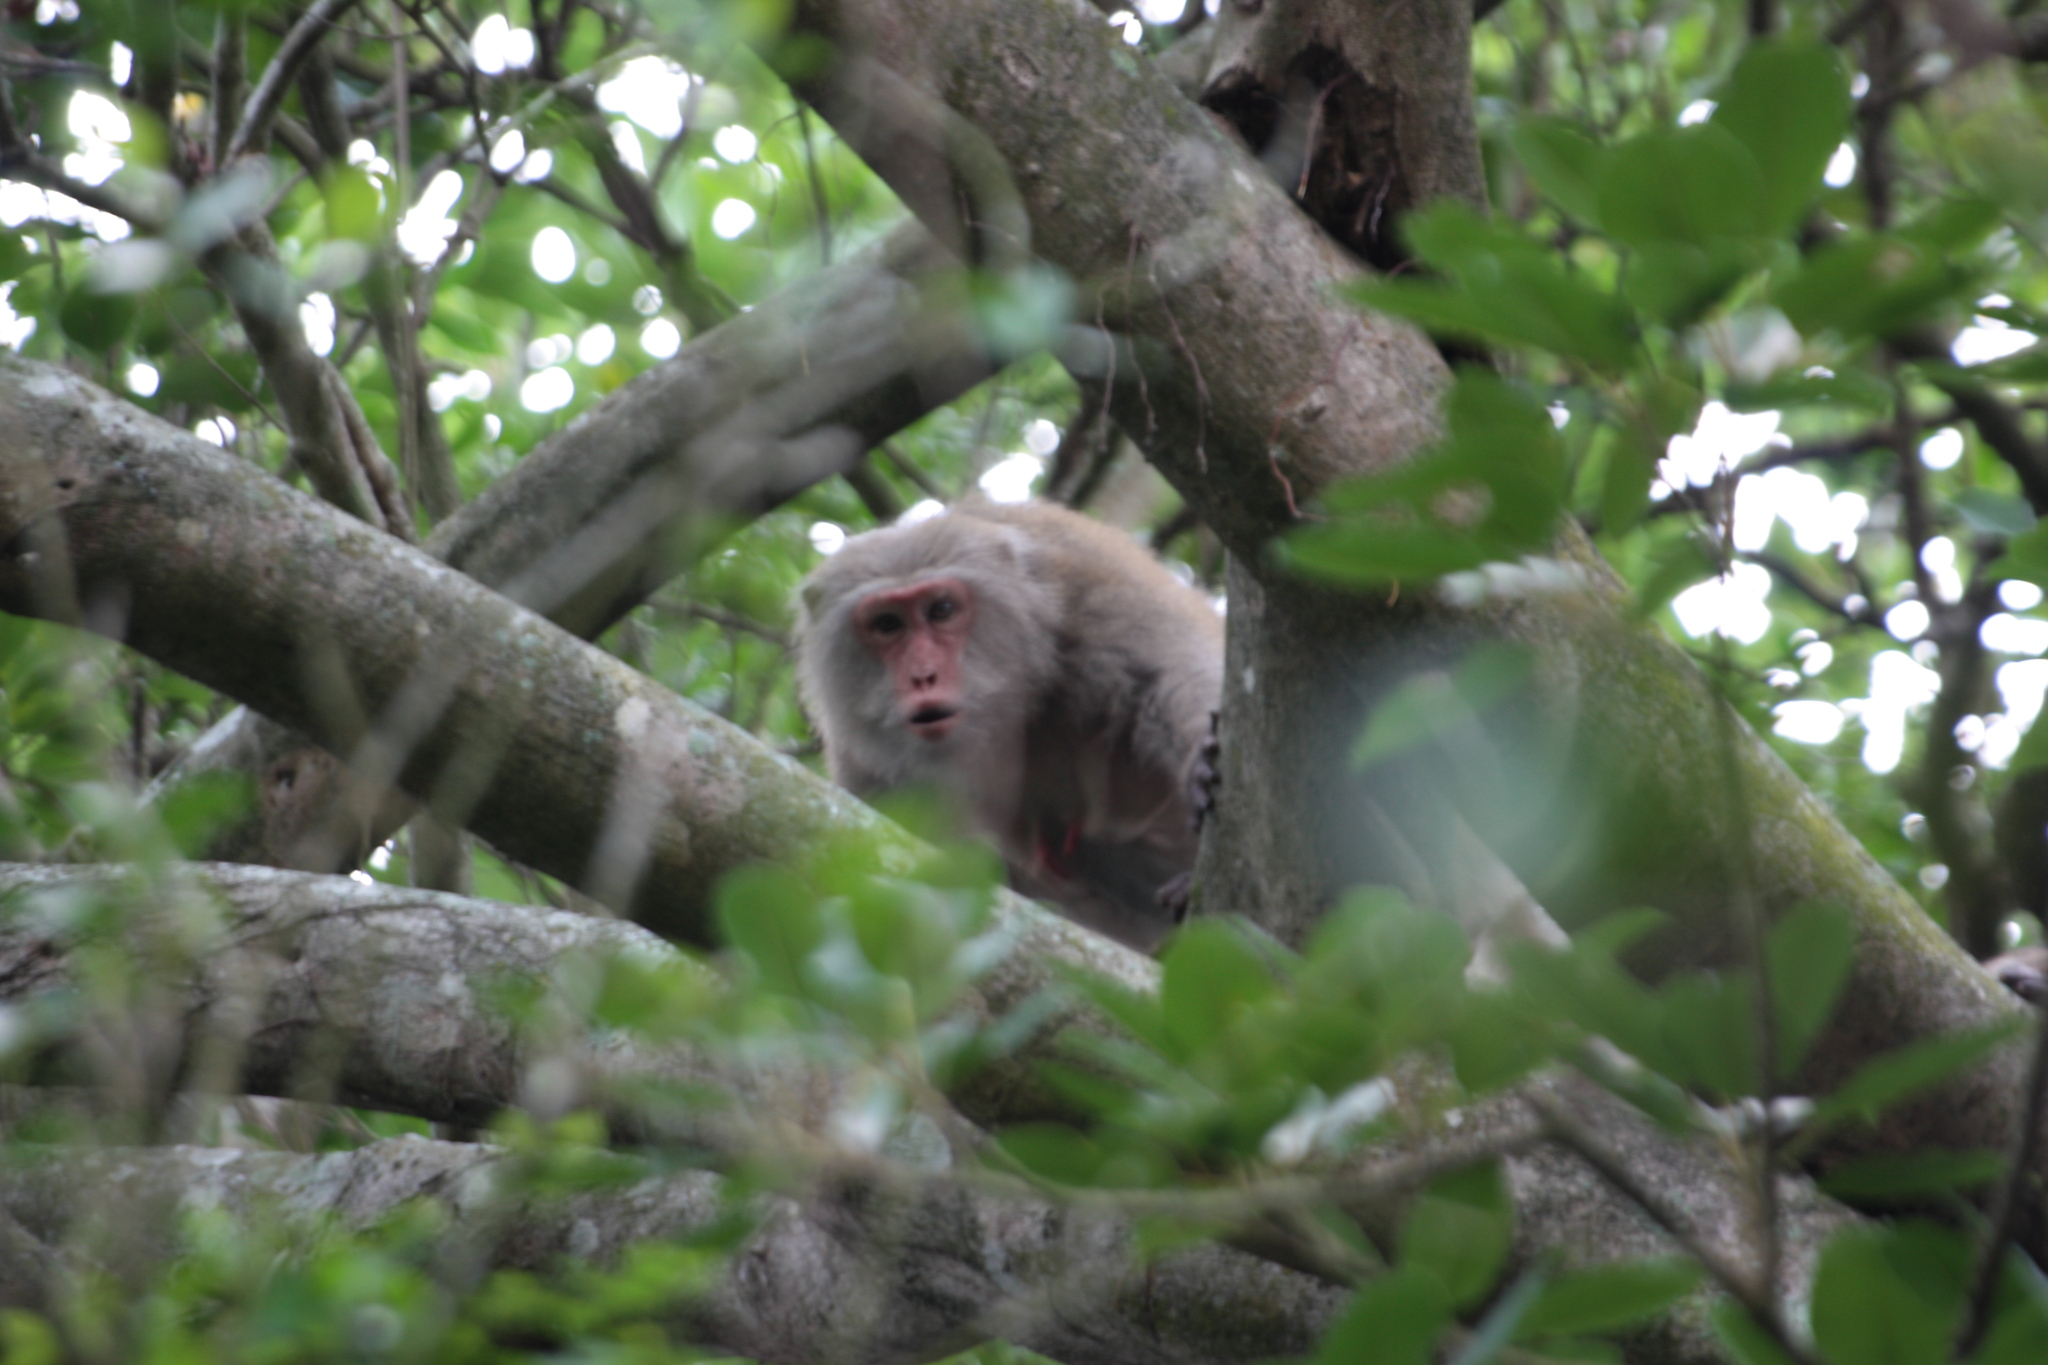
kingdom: Animalia
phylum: Chordata
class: Mammalia
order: Primates
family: Cercopithecidae
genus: Macaca
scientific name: Macaca cyclopis
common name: Formosan rock macaque
